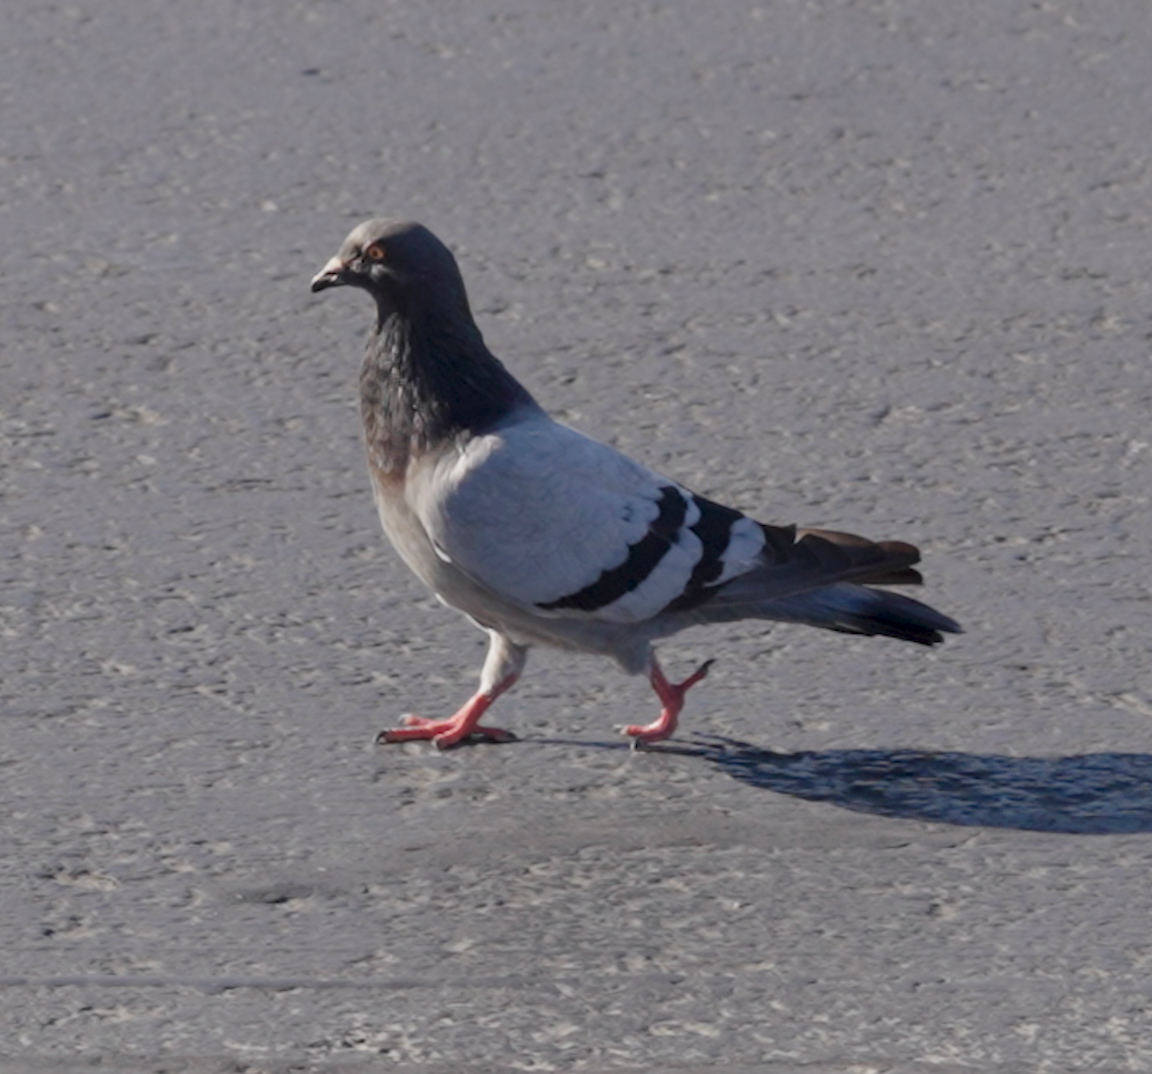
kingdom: Animalia
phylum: Chordata
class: Aves
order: Columbiformes
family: Columbidae
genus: Columba
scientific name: Columba livia
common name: Rock pigeon
